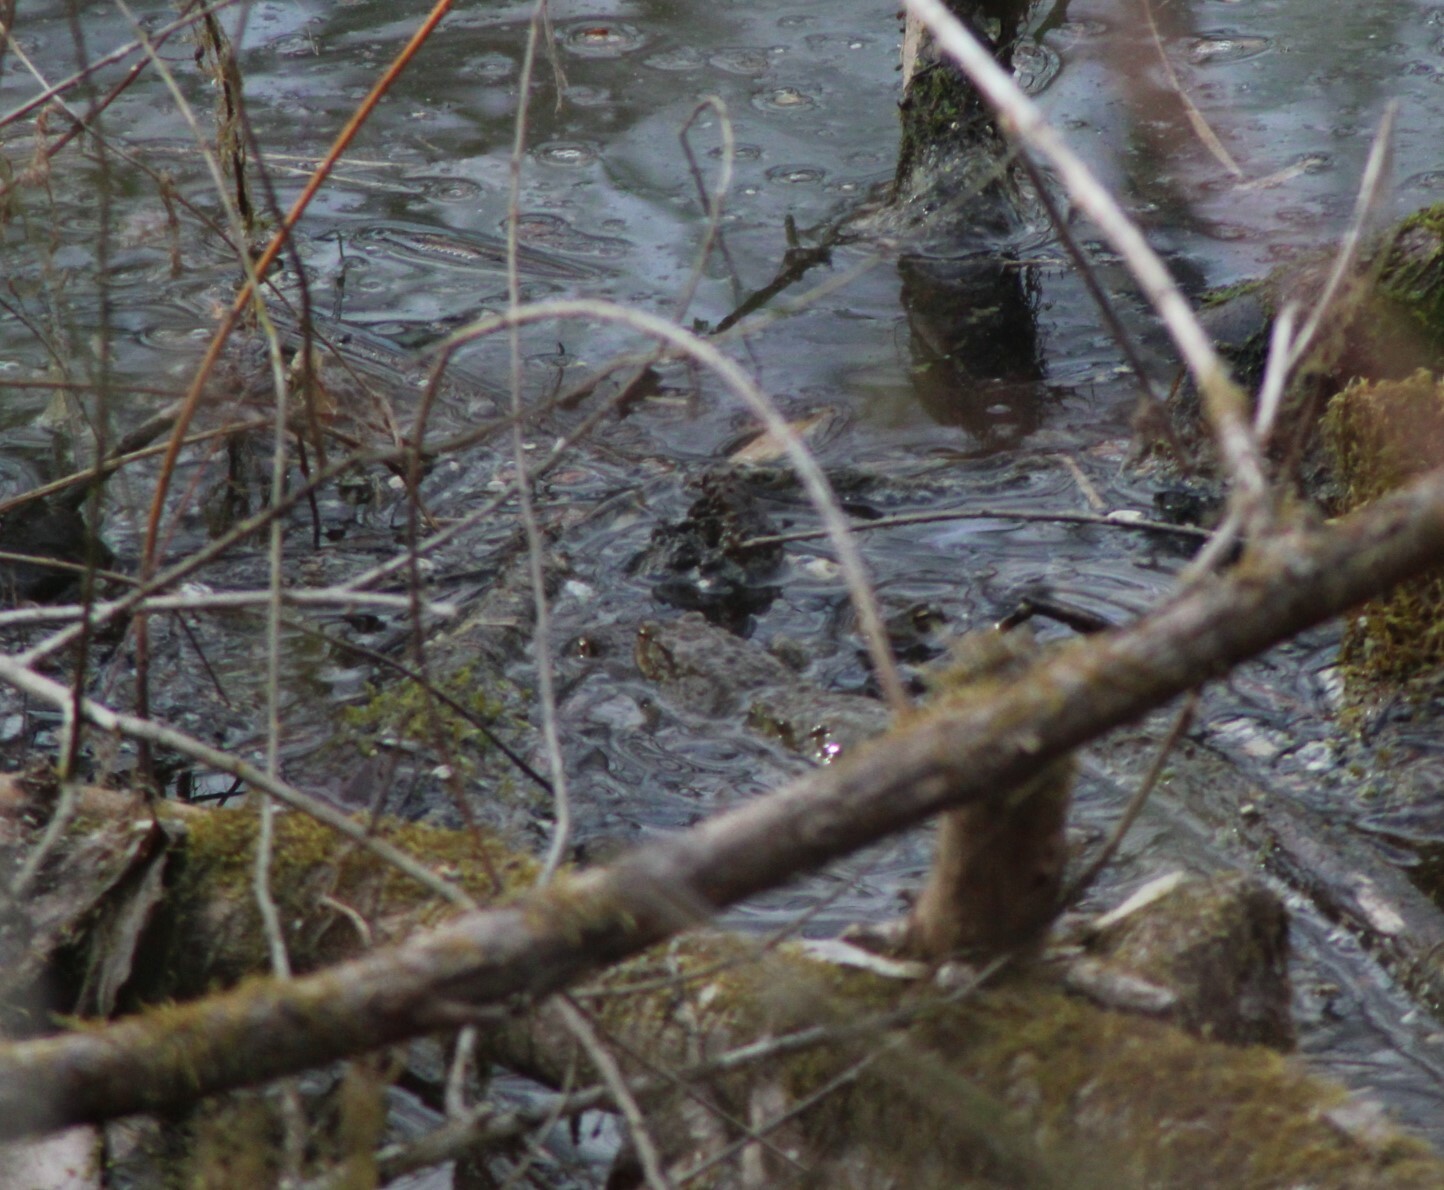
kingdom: Animalia
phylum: Chordata
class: Amphibia
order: Anura
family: Bufonidae
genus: Bufo
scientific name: Bufo bufo
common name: Common toad
